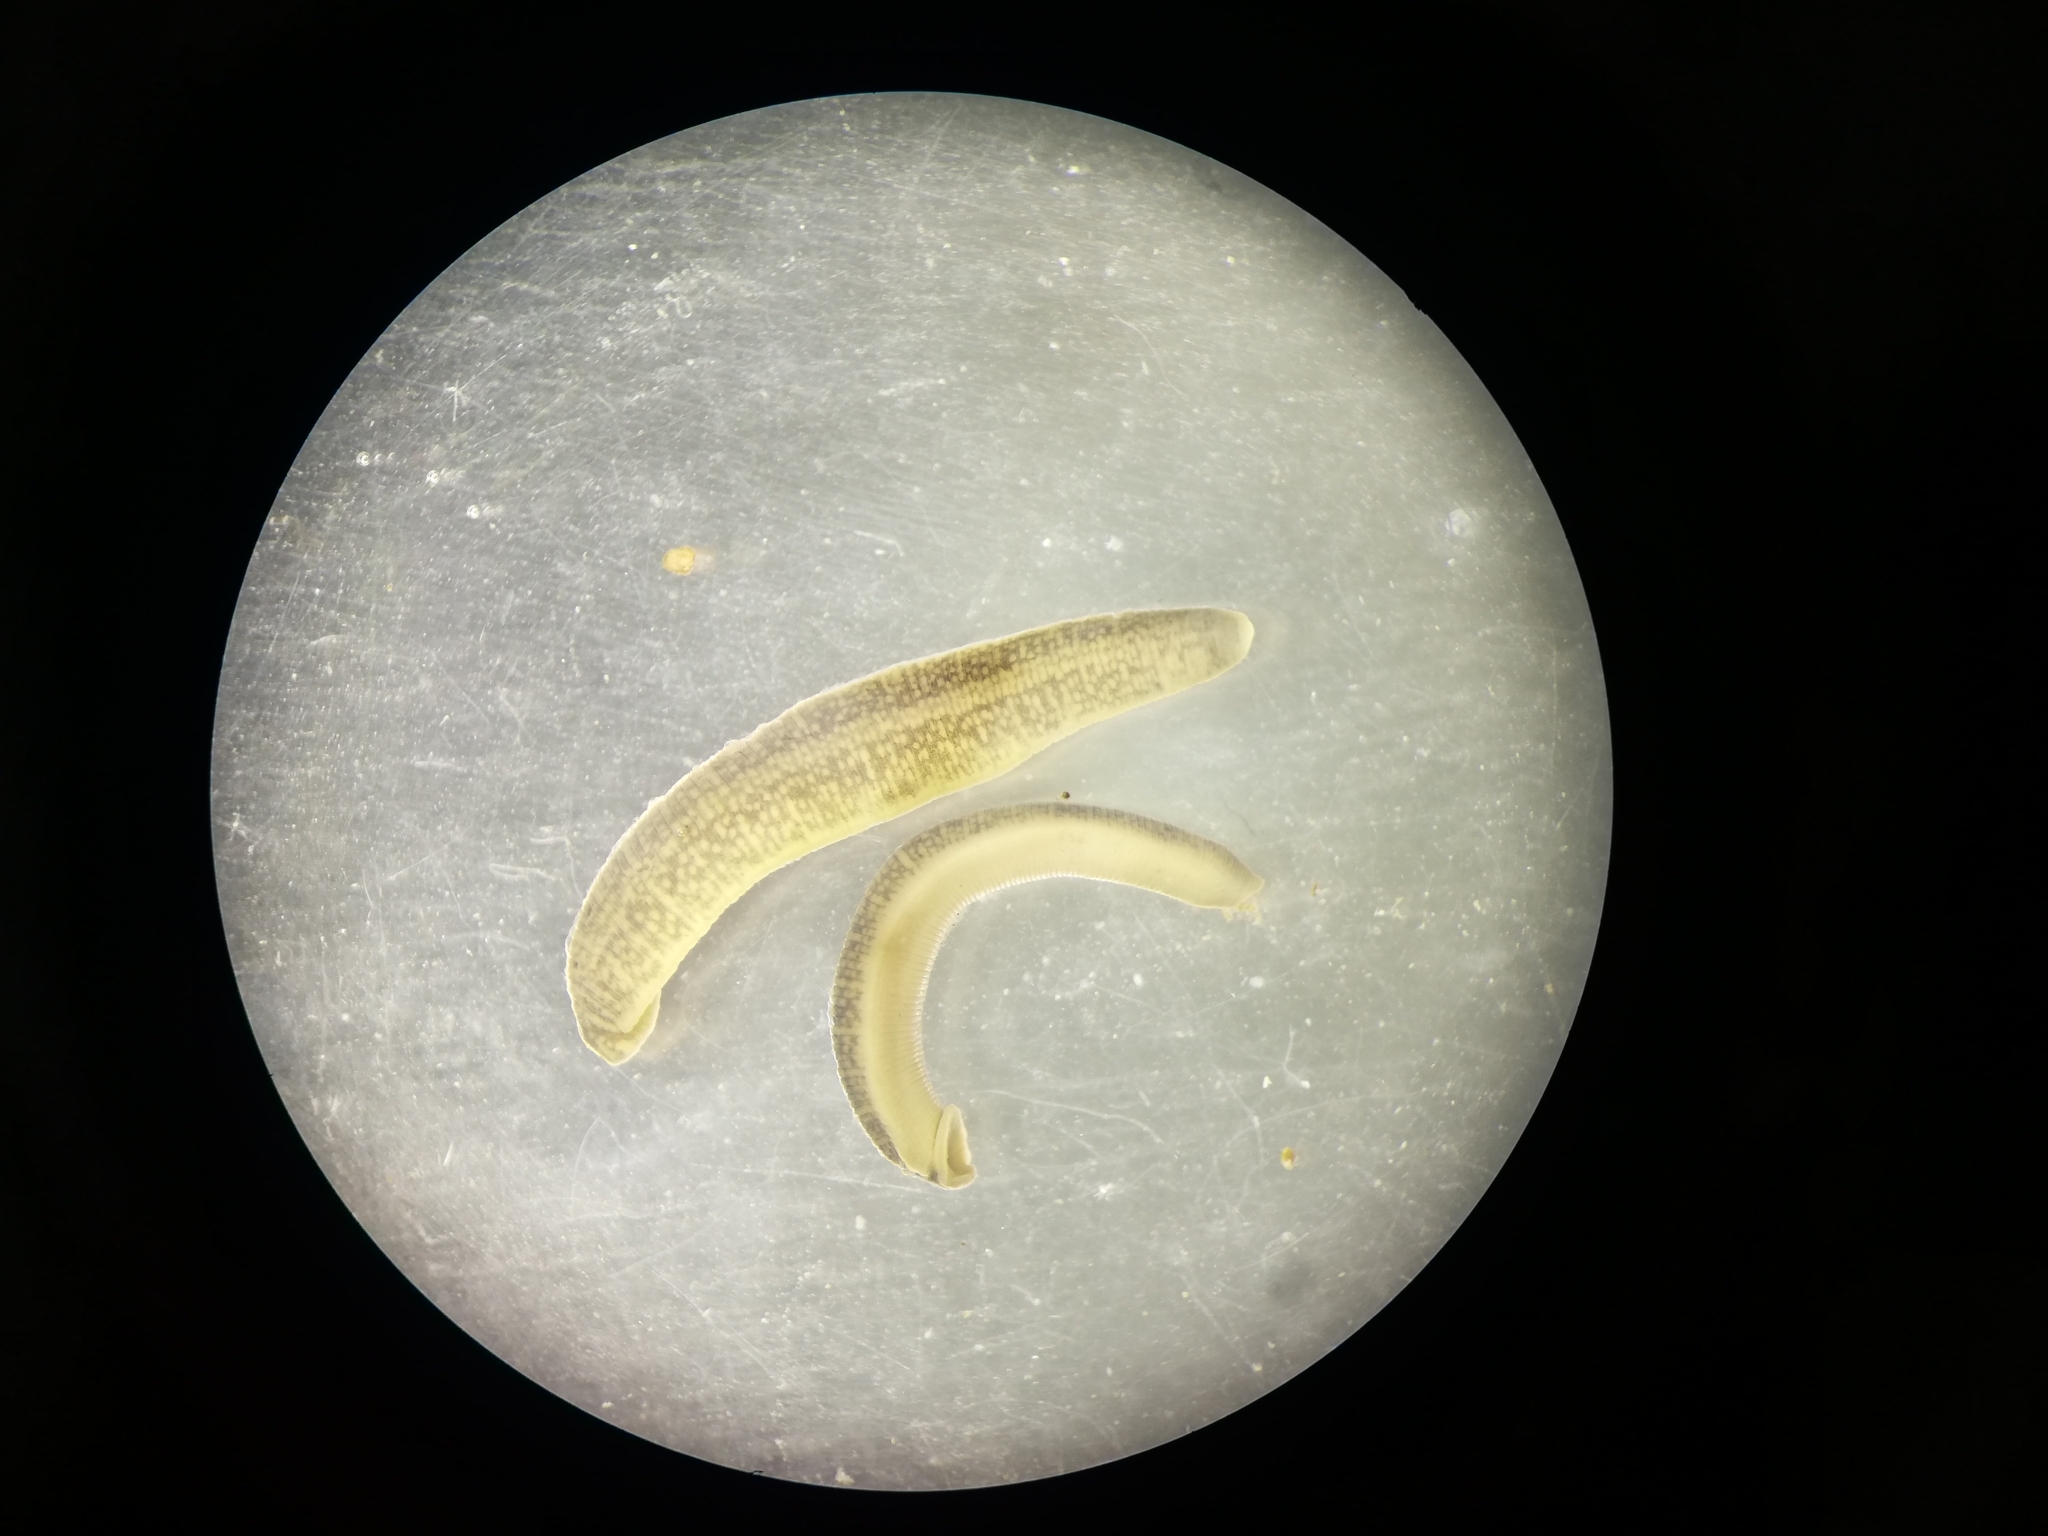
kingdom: Animalia
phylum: Annelida
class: Clitellata
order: Arhynchobdellida
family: Erpobdellidae
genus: Erpobdella
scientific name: Erpobdella octoculata
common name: Leeches
